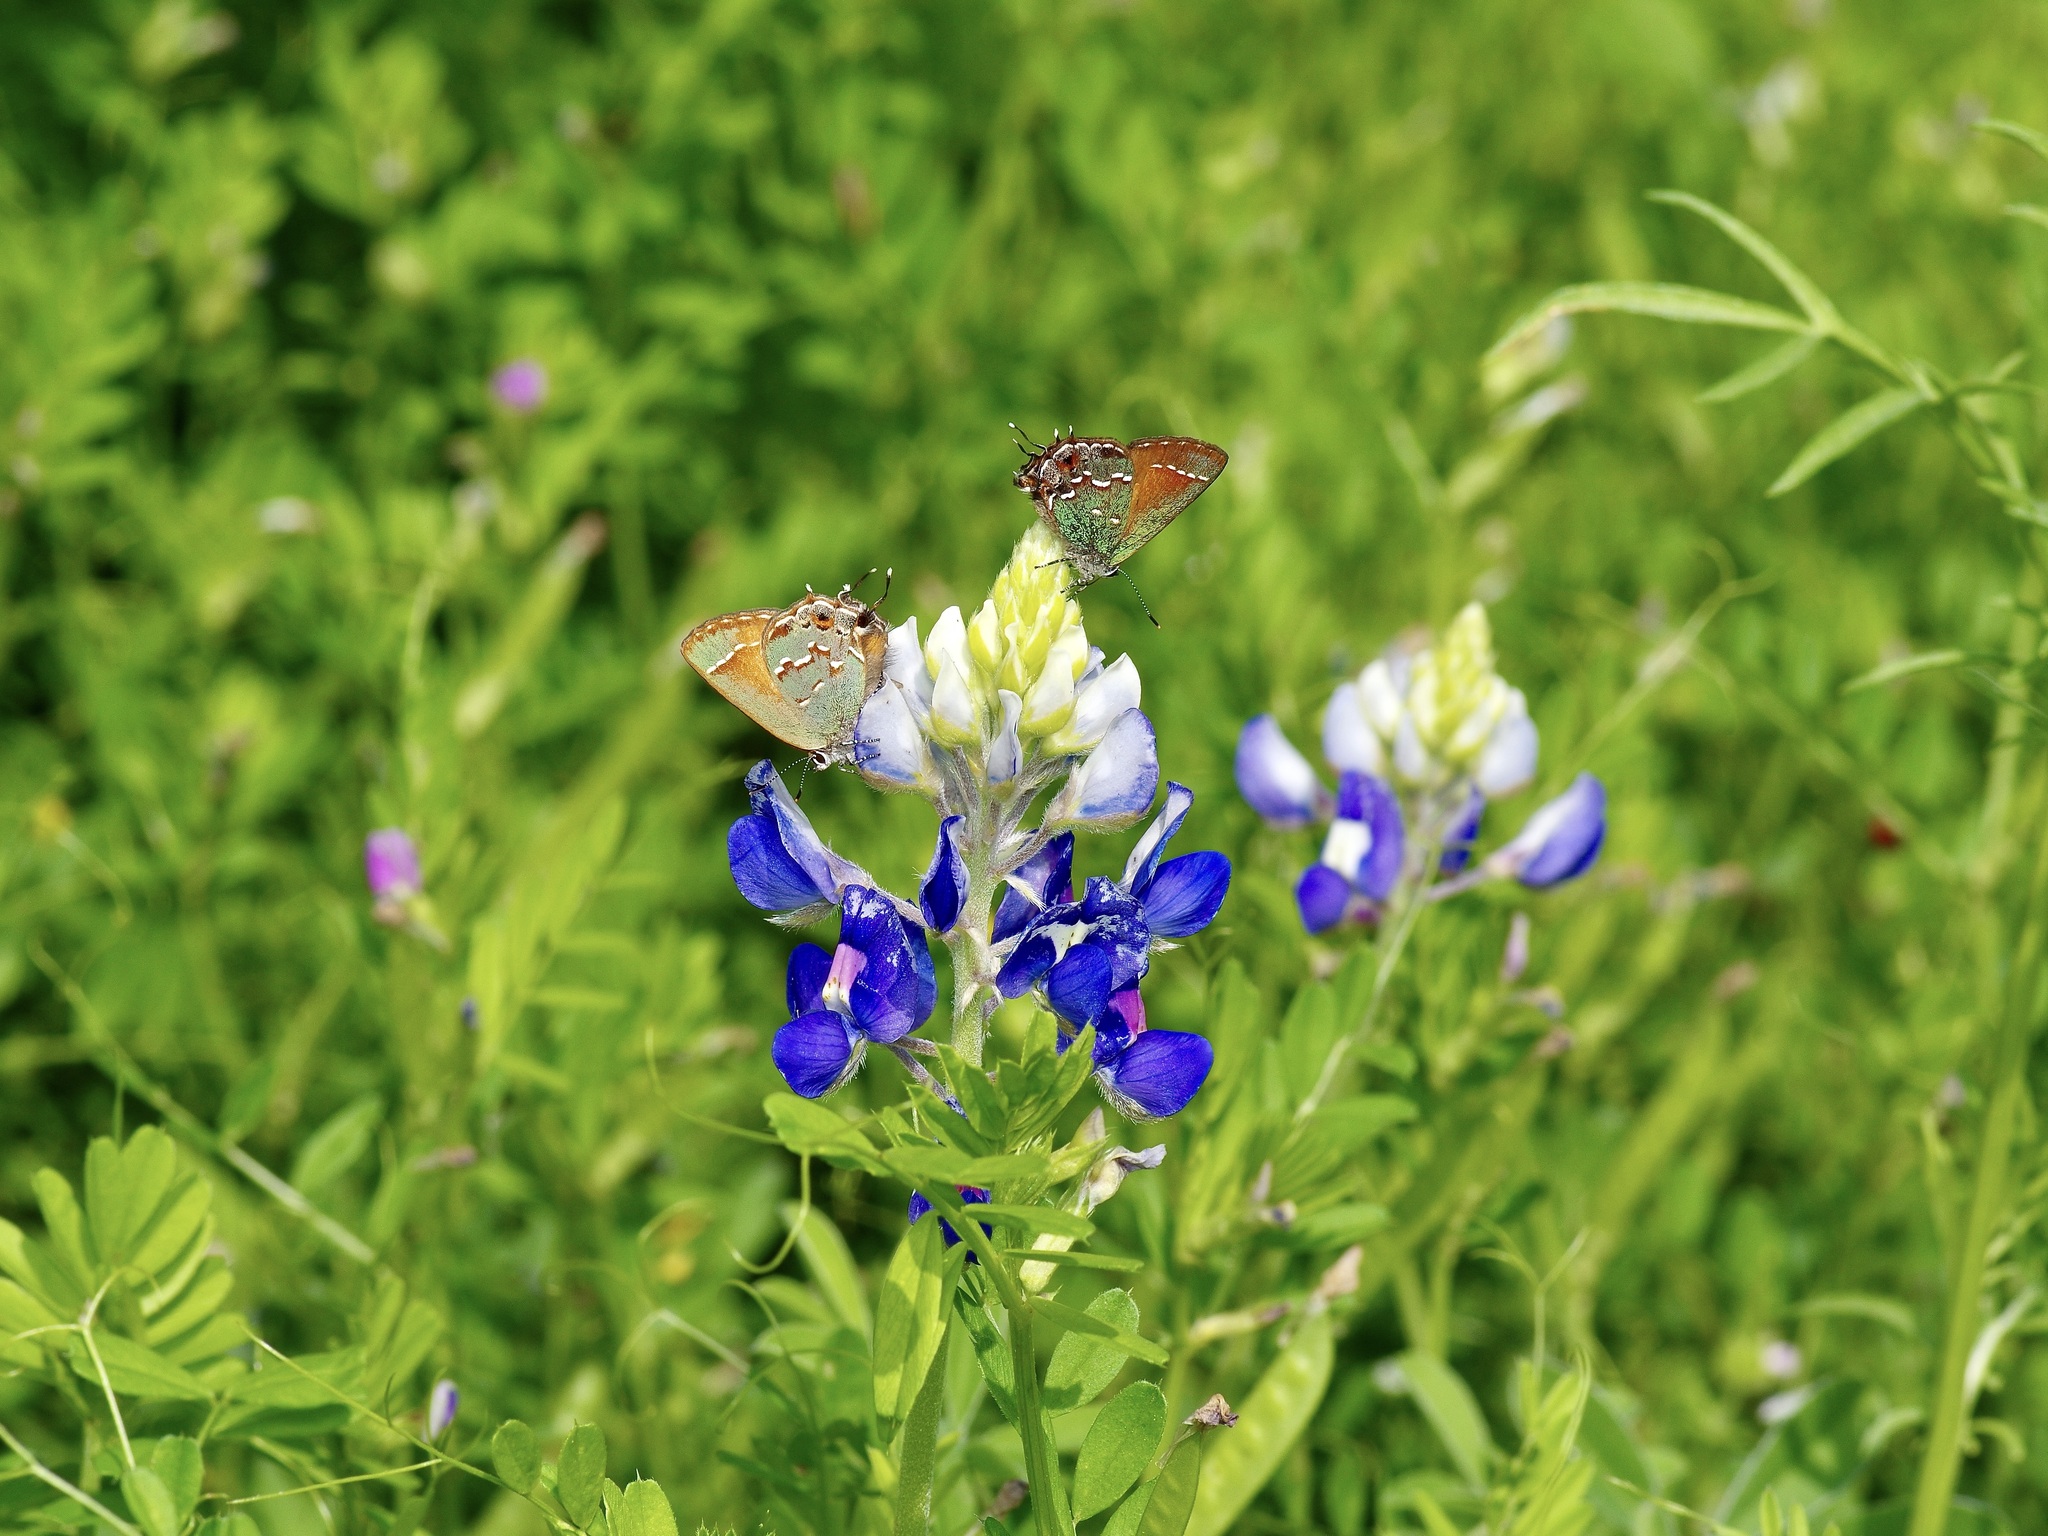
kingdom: Animalia
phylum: Arthropoda
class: Insecta
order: Lepidoptera
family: Lycaenidae
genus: Mitoura
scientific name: Mitoura gryneus
